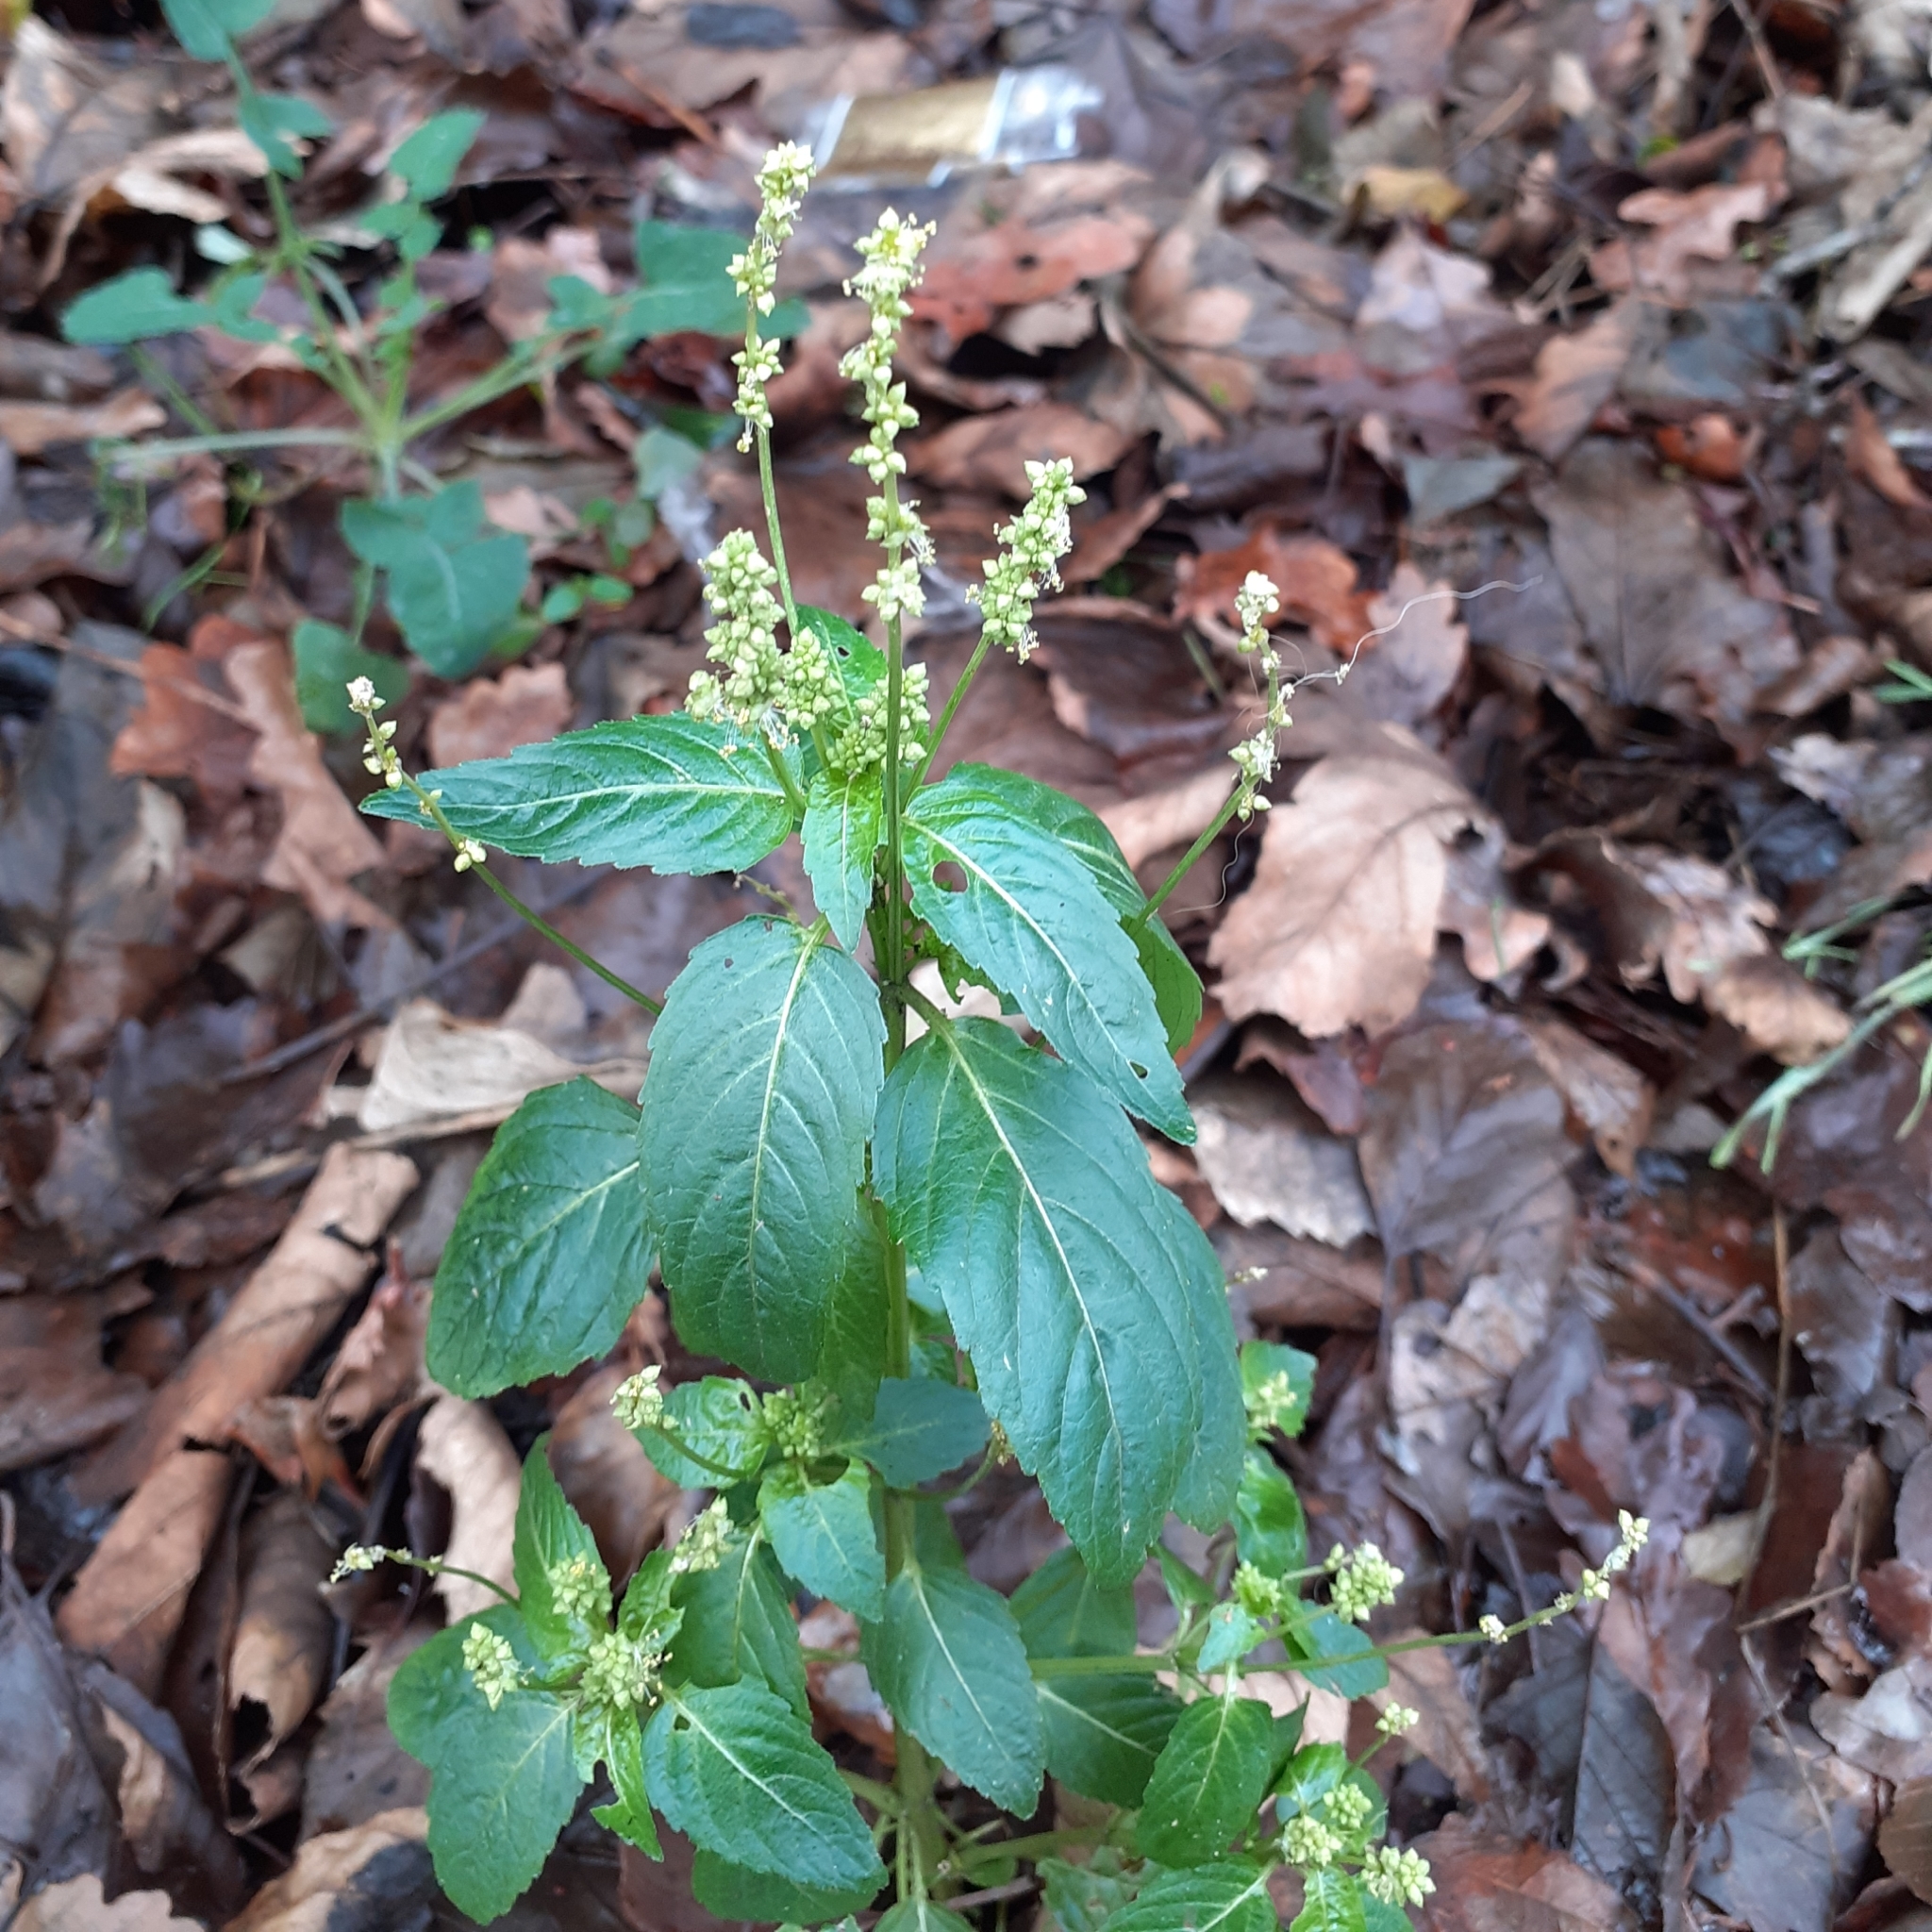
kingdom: Plantae
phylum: Tracheophyta
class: Magnoliopsida
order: Malpighiales
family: Euphorbiaceae
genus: Mercurialis
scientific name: Mercurialis annua
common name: Annual mercury
